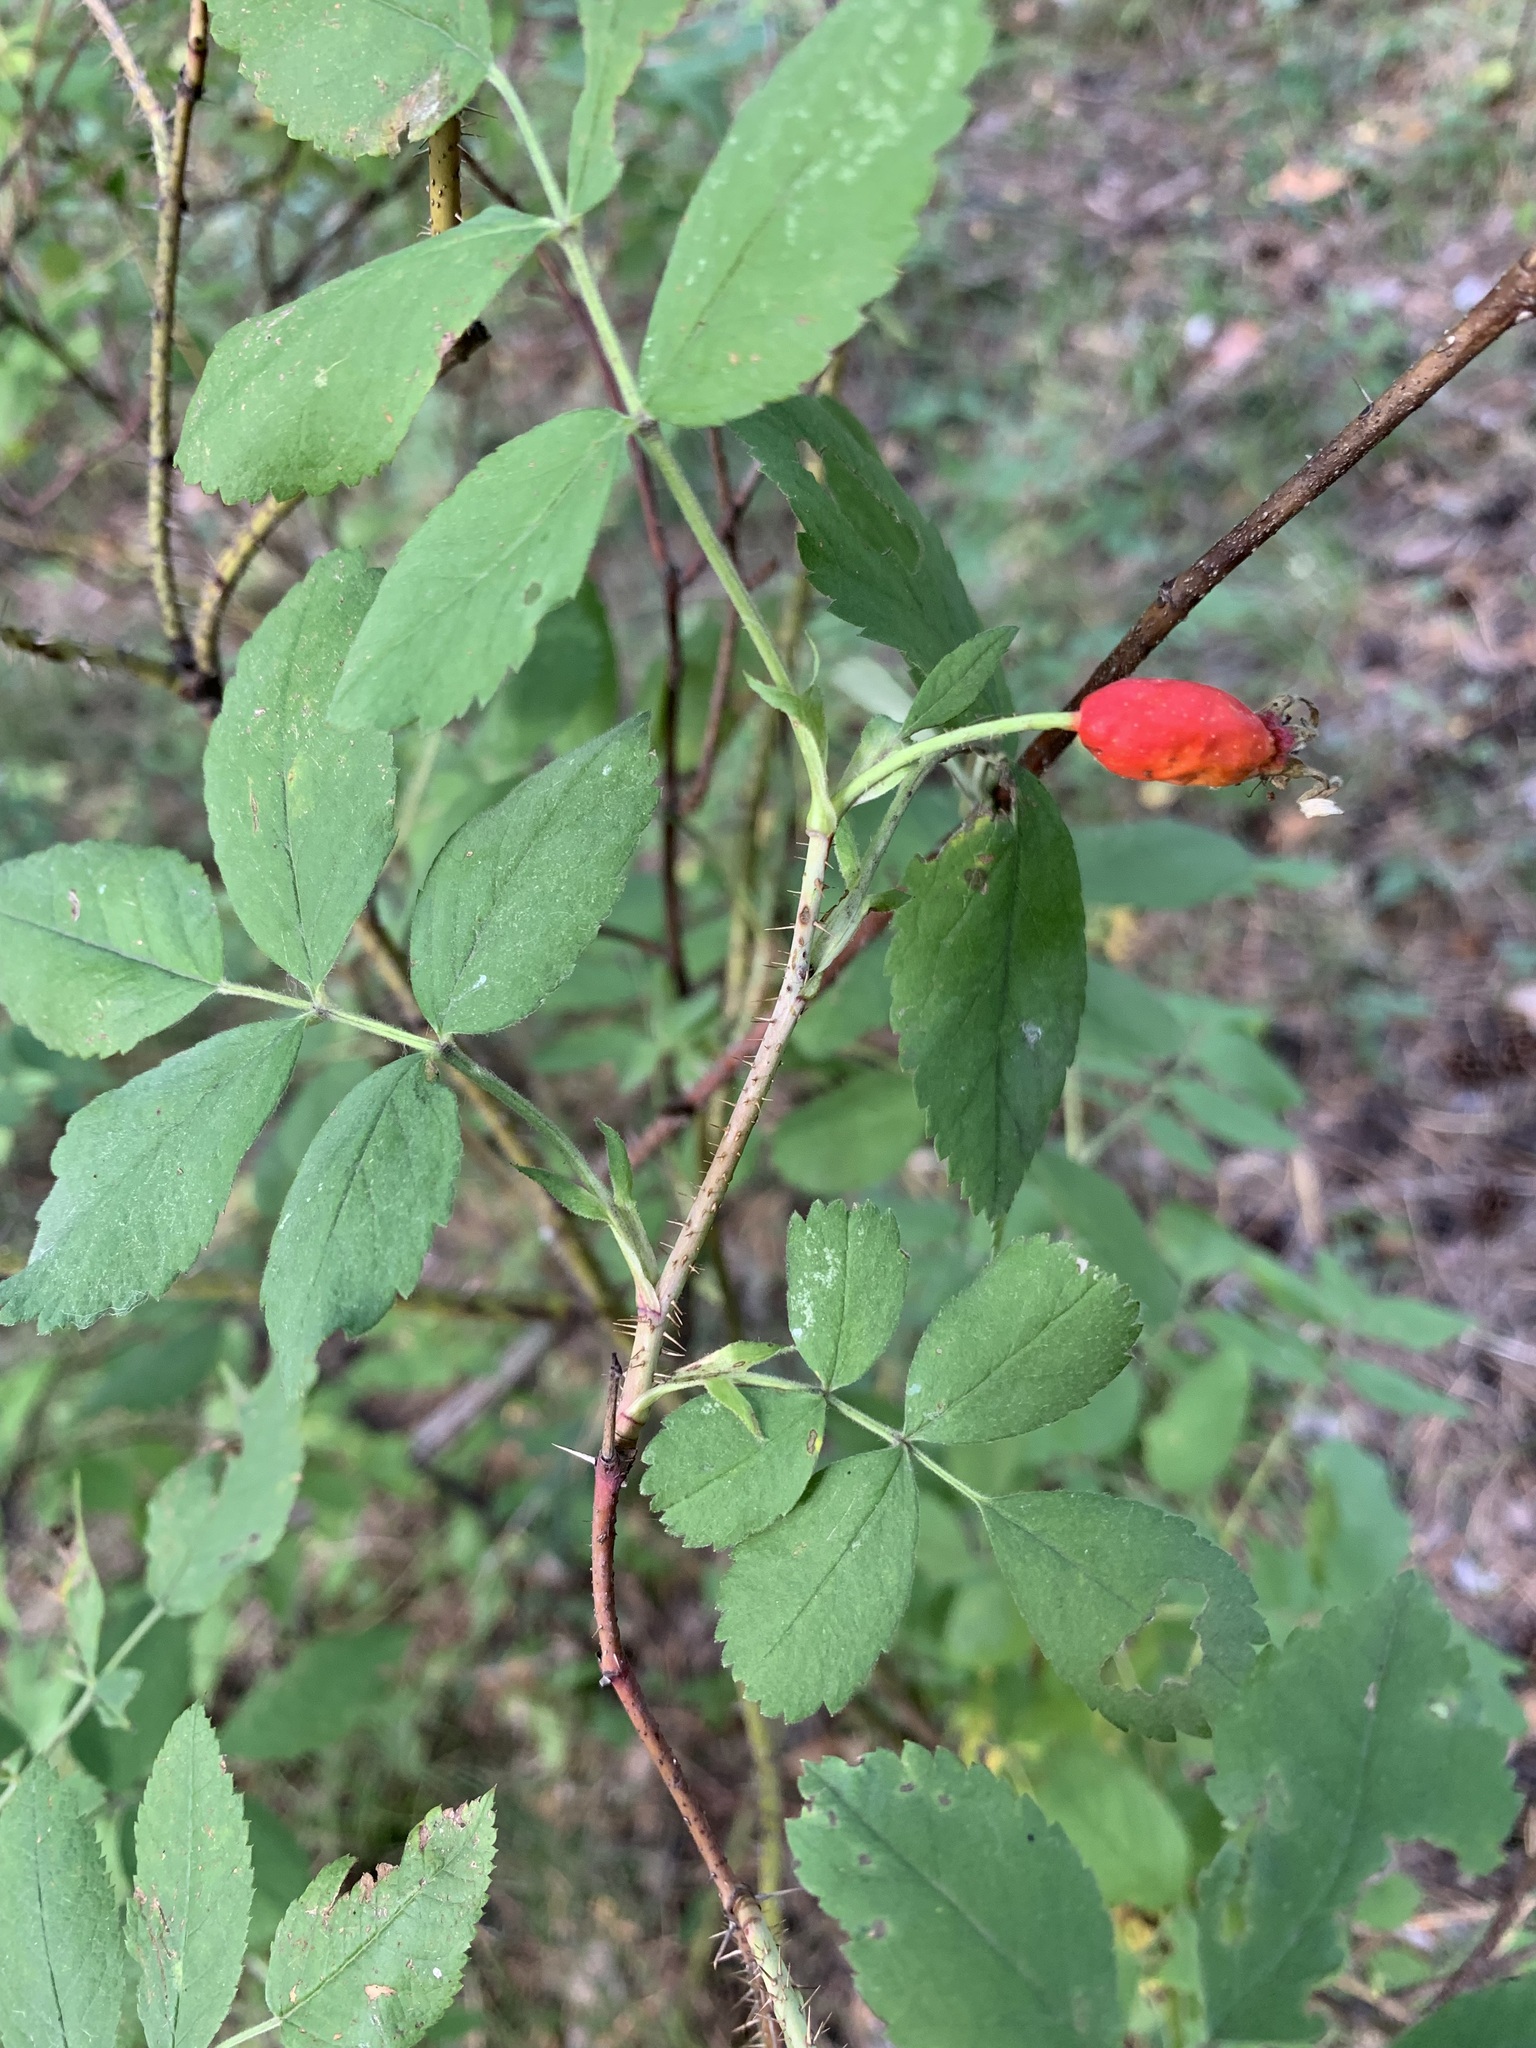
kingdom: Plantae
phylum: Tracheophyta
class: Magnoliopsida
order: Rosales
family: Rosaceae
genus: Rosa
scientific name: Rosa acicularis
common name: Prickly rose
